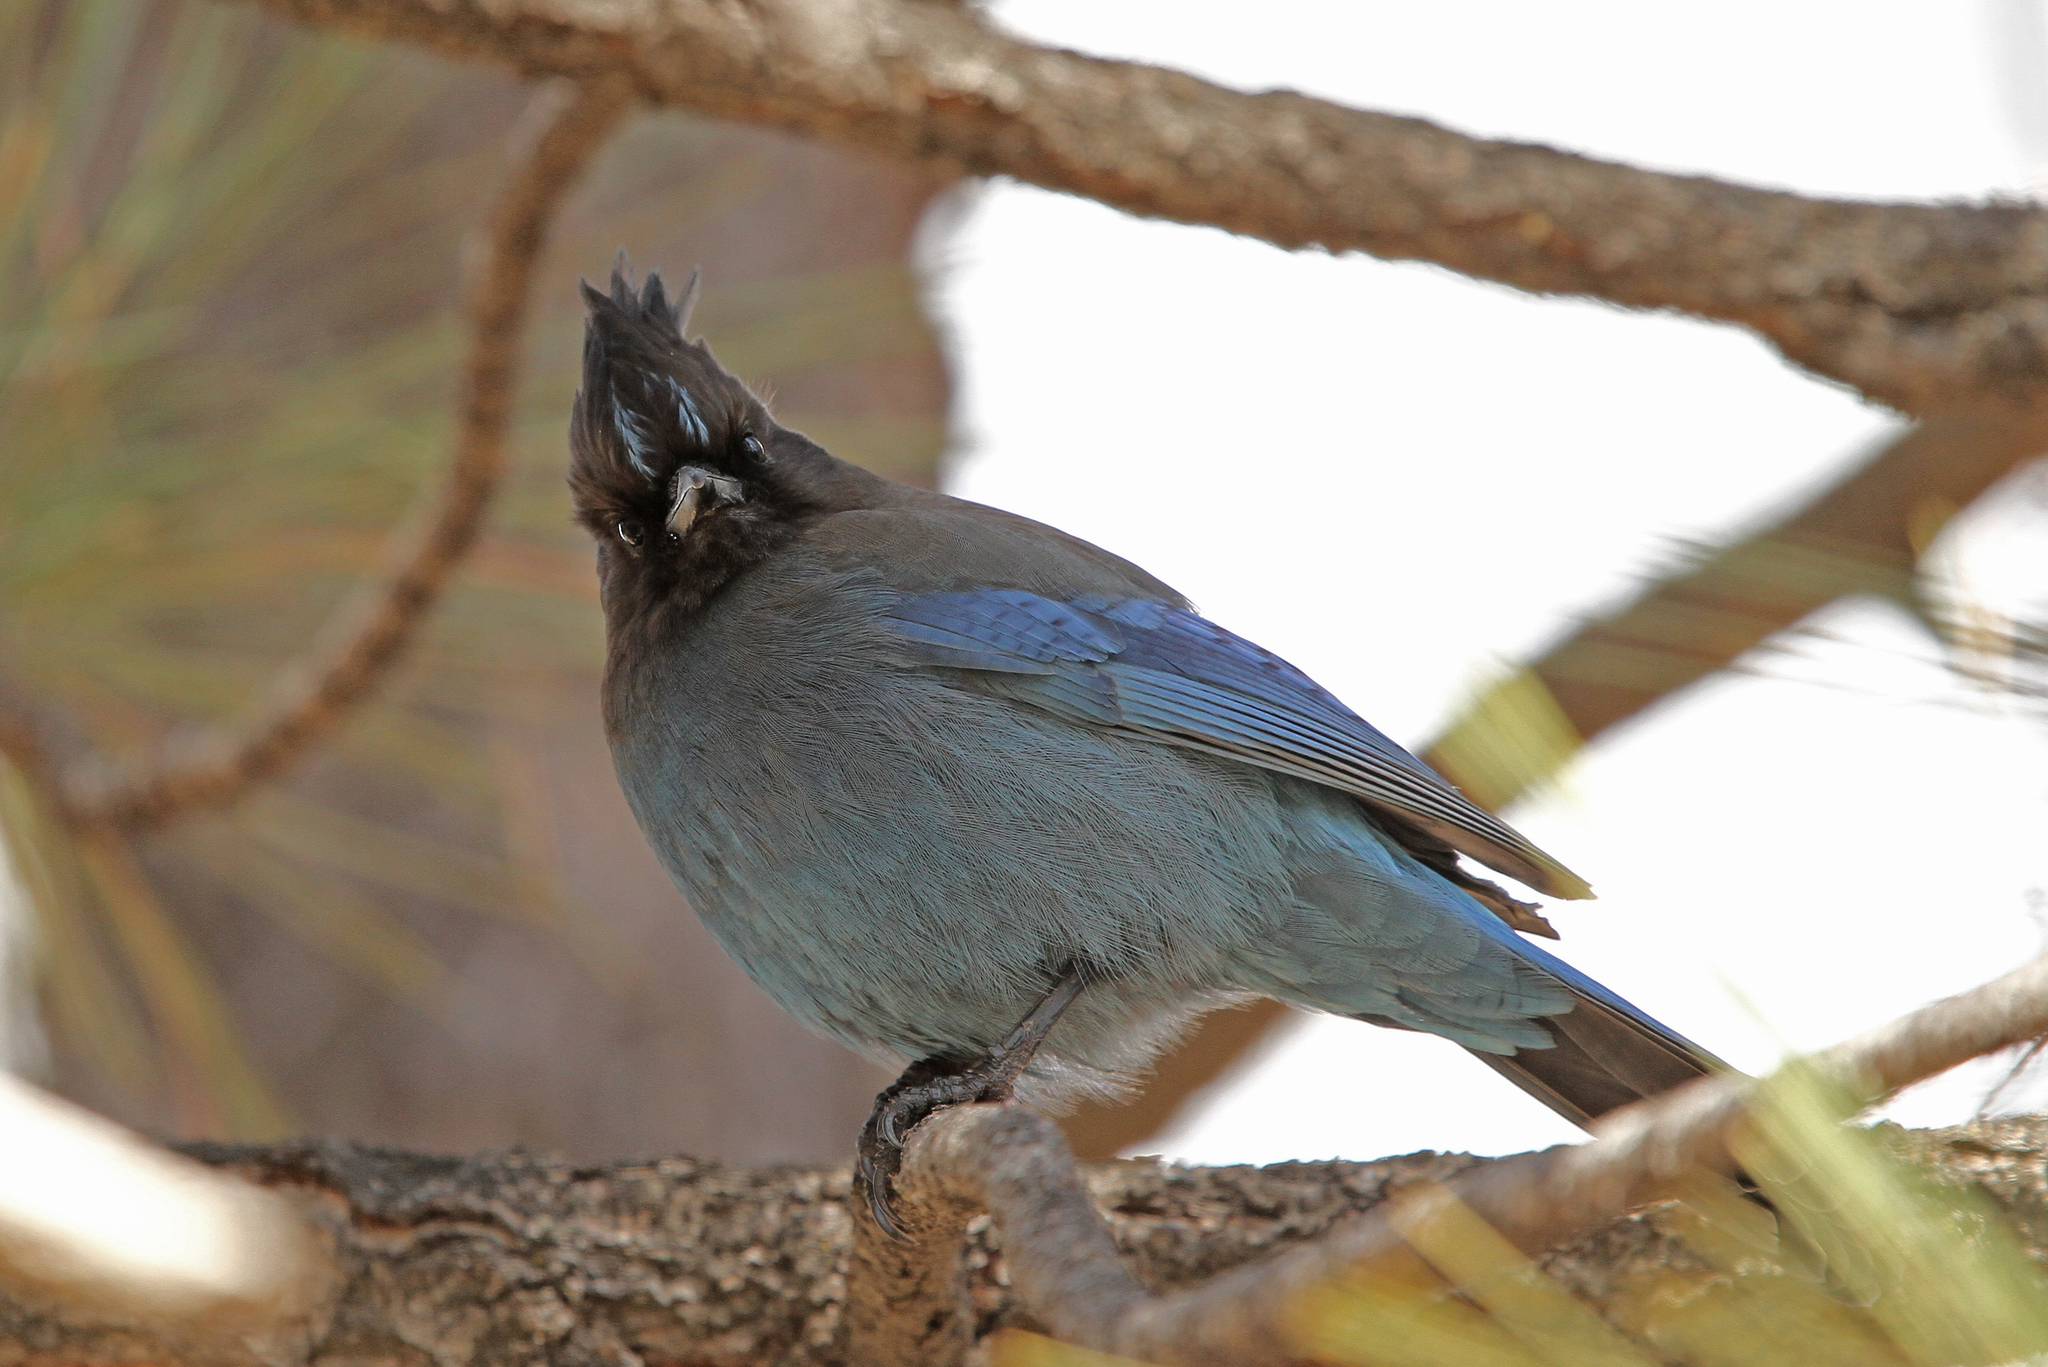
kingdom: Animalia
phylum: Chordata
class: Aves
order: Passeriformes
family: Corvidae
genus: Cyanocitta
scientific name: Cyanocitta stelleri
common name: Steller's jay
